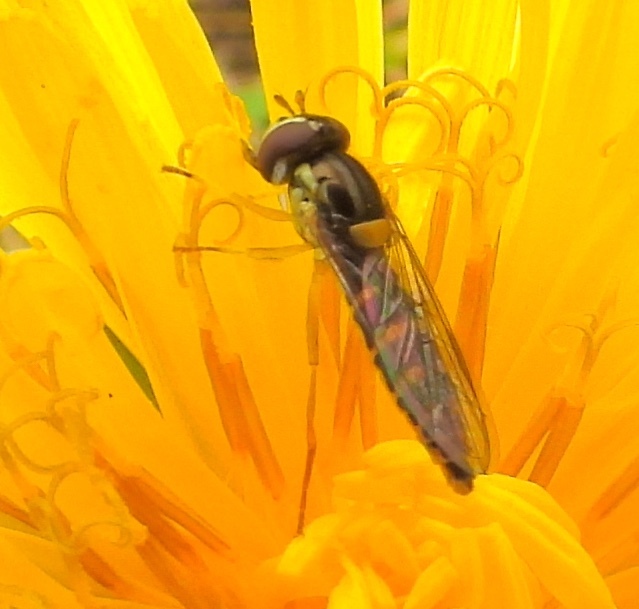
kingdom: Animalia
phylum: Arthropoda
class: Insecta
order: Diptera
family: Syrphidae
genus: Sphaerophoria
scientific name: Sphaerophoria
